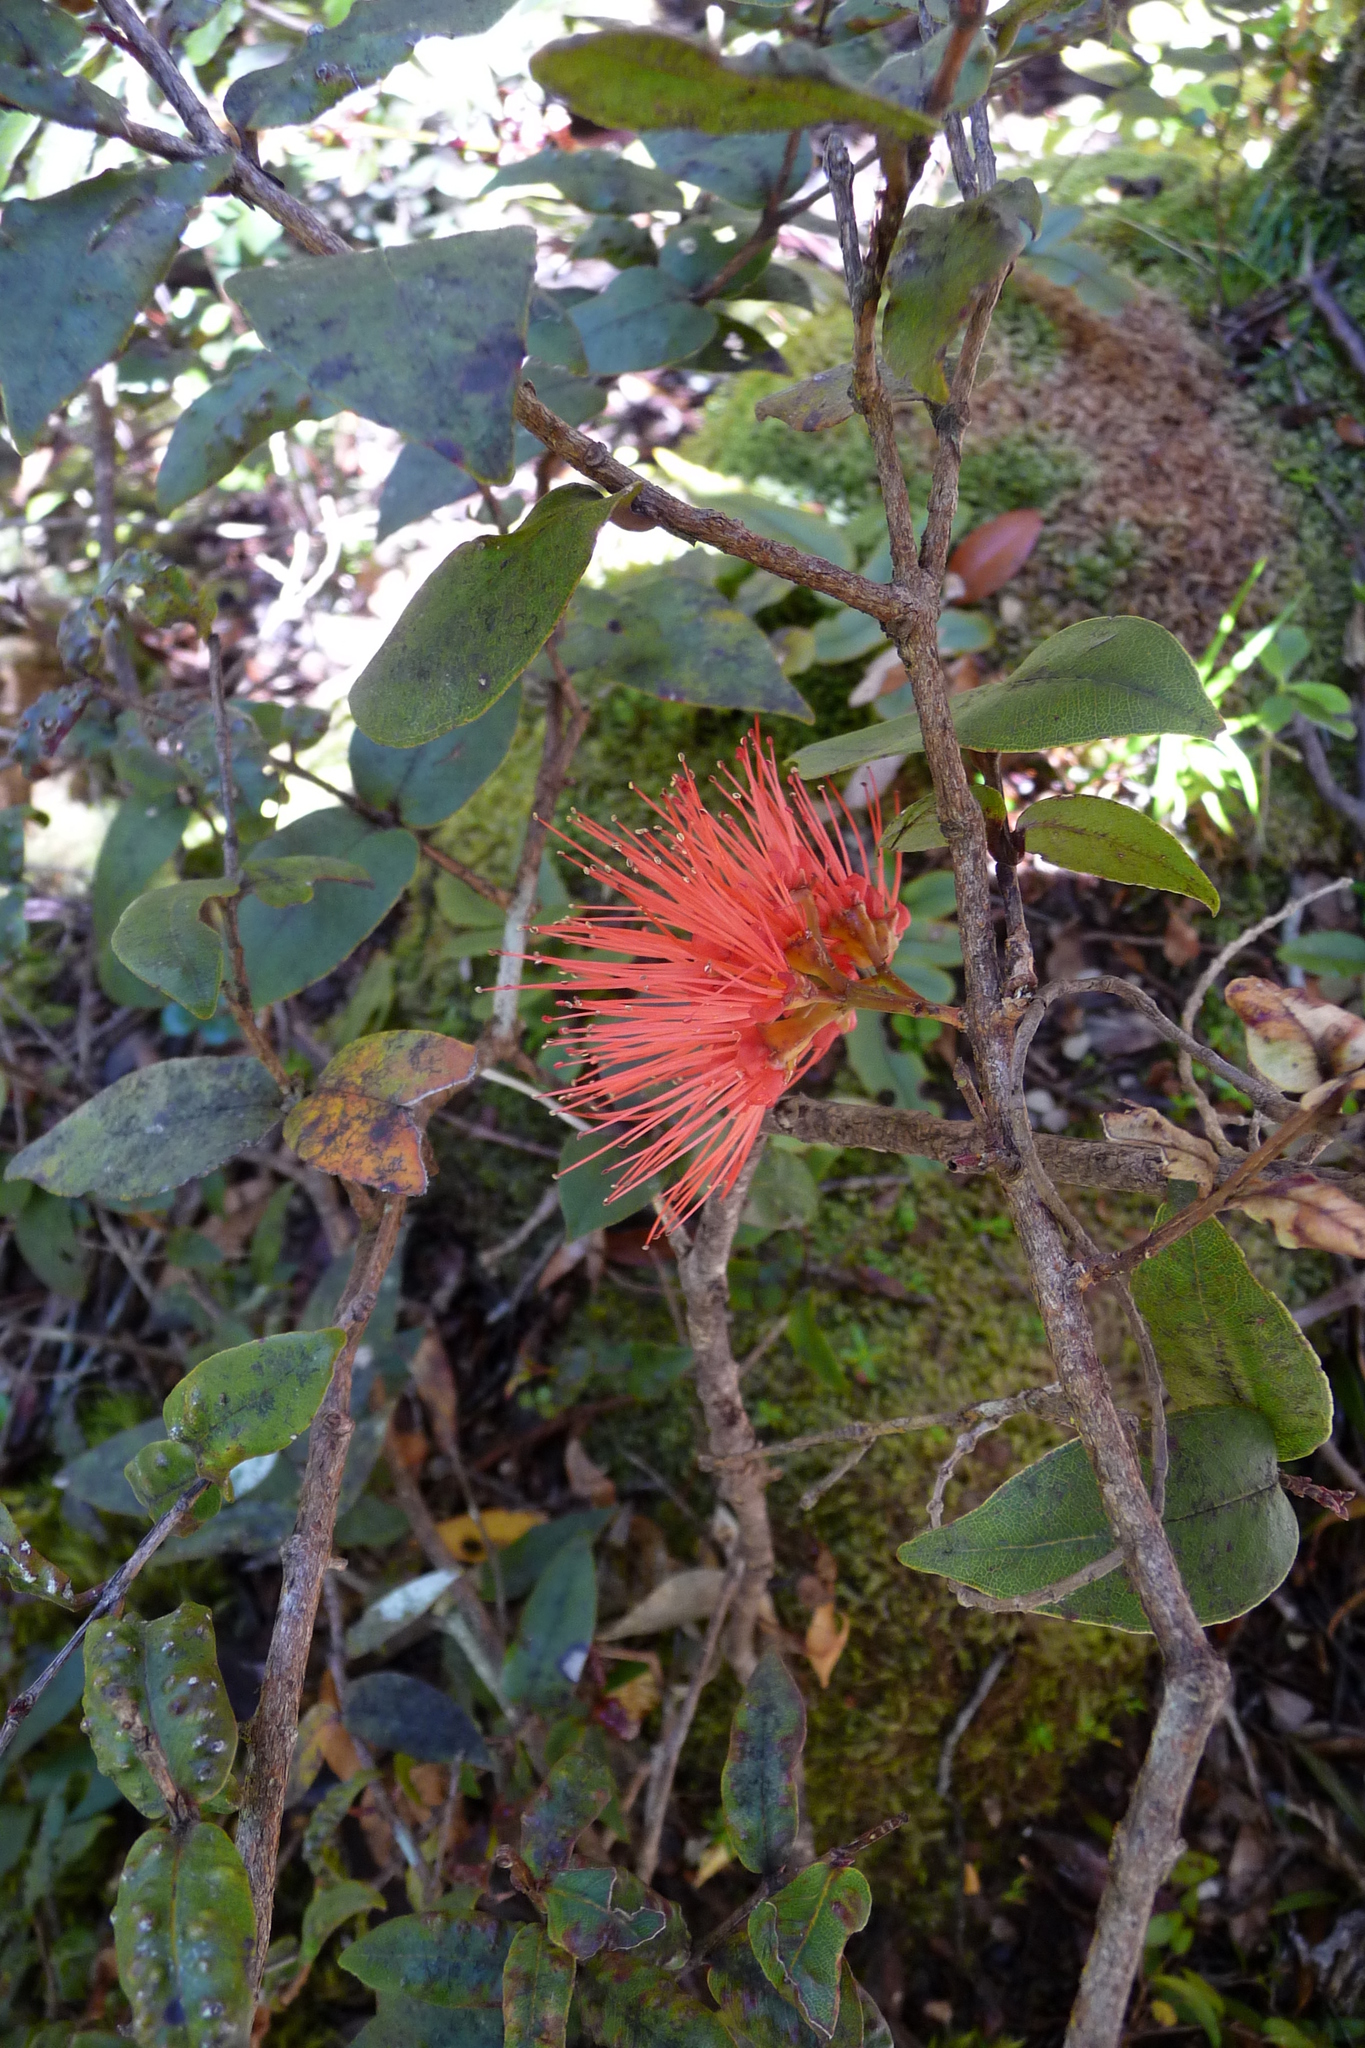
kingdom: Plantae
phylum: Tracheophyta
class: Magnoliopsida
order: Myrtales
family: Myrtaceae
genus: Metrosideros
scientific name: Metrosideros parkinsonii
